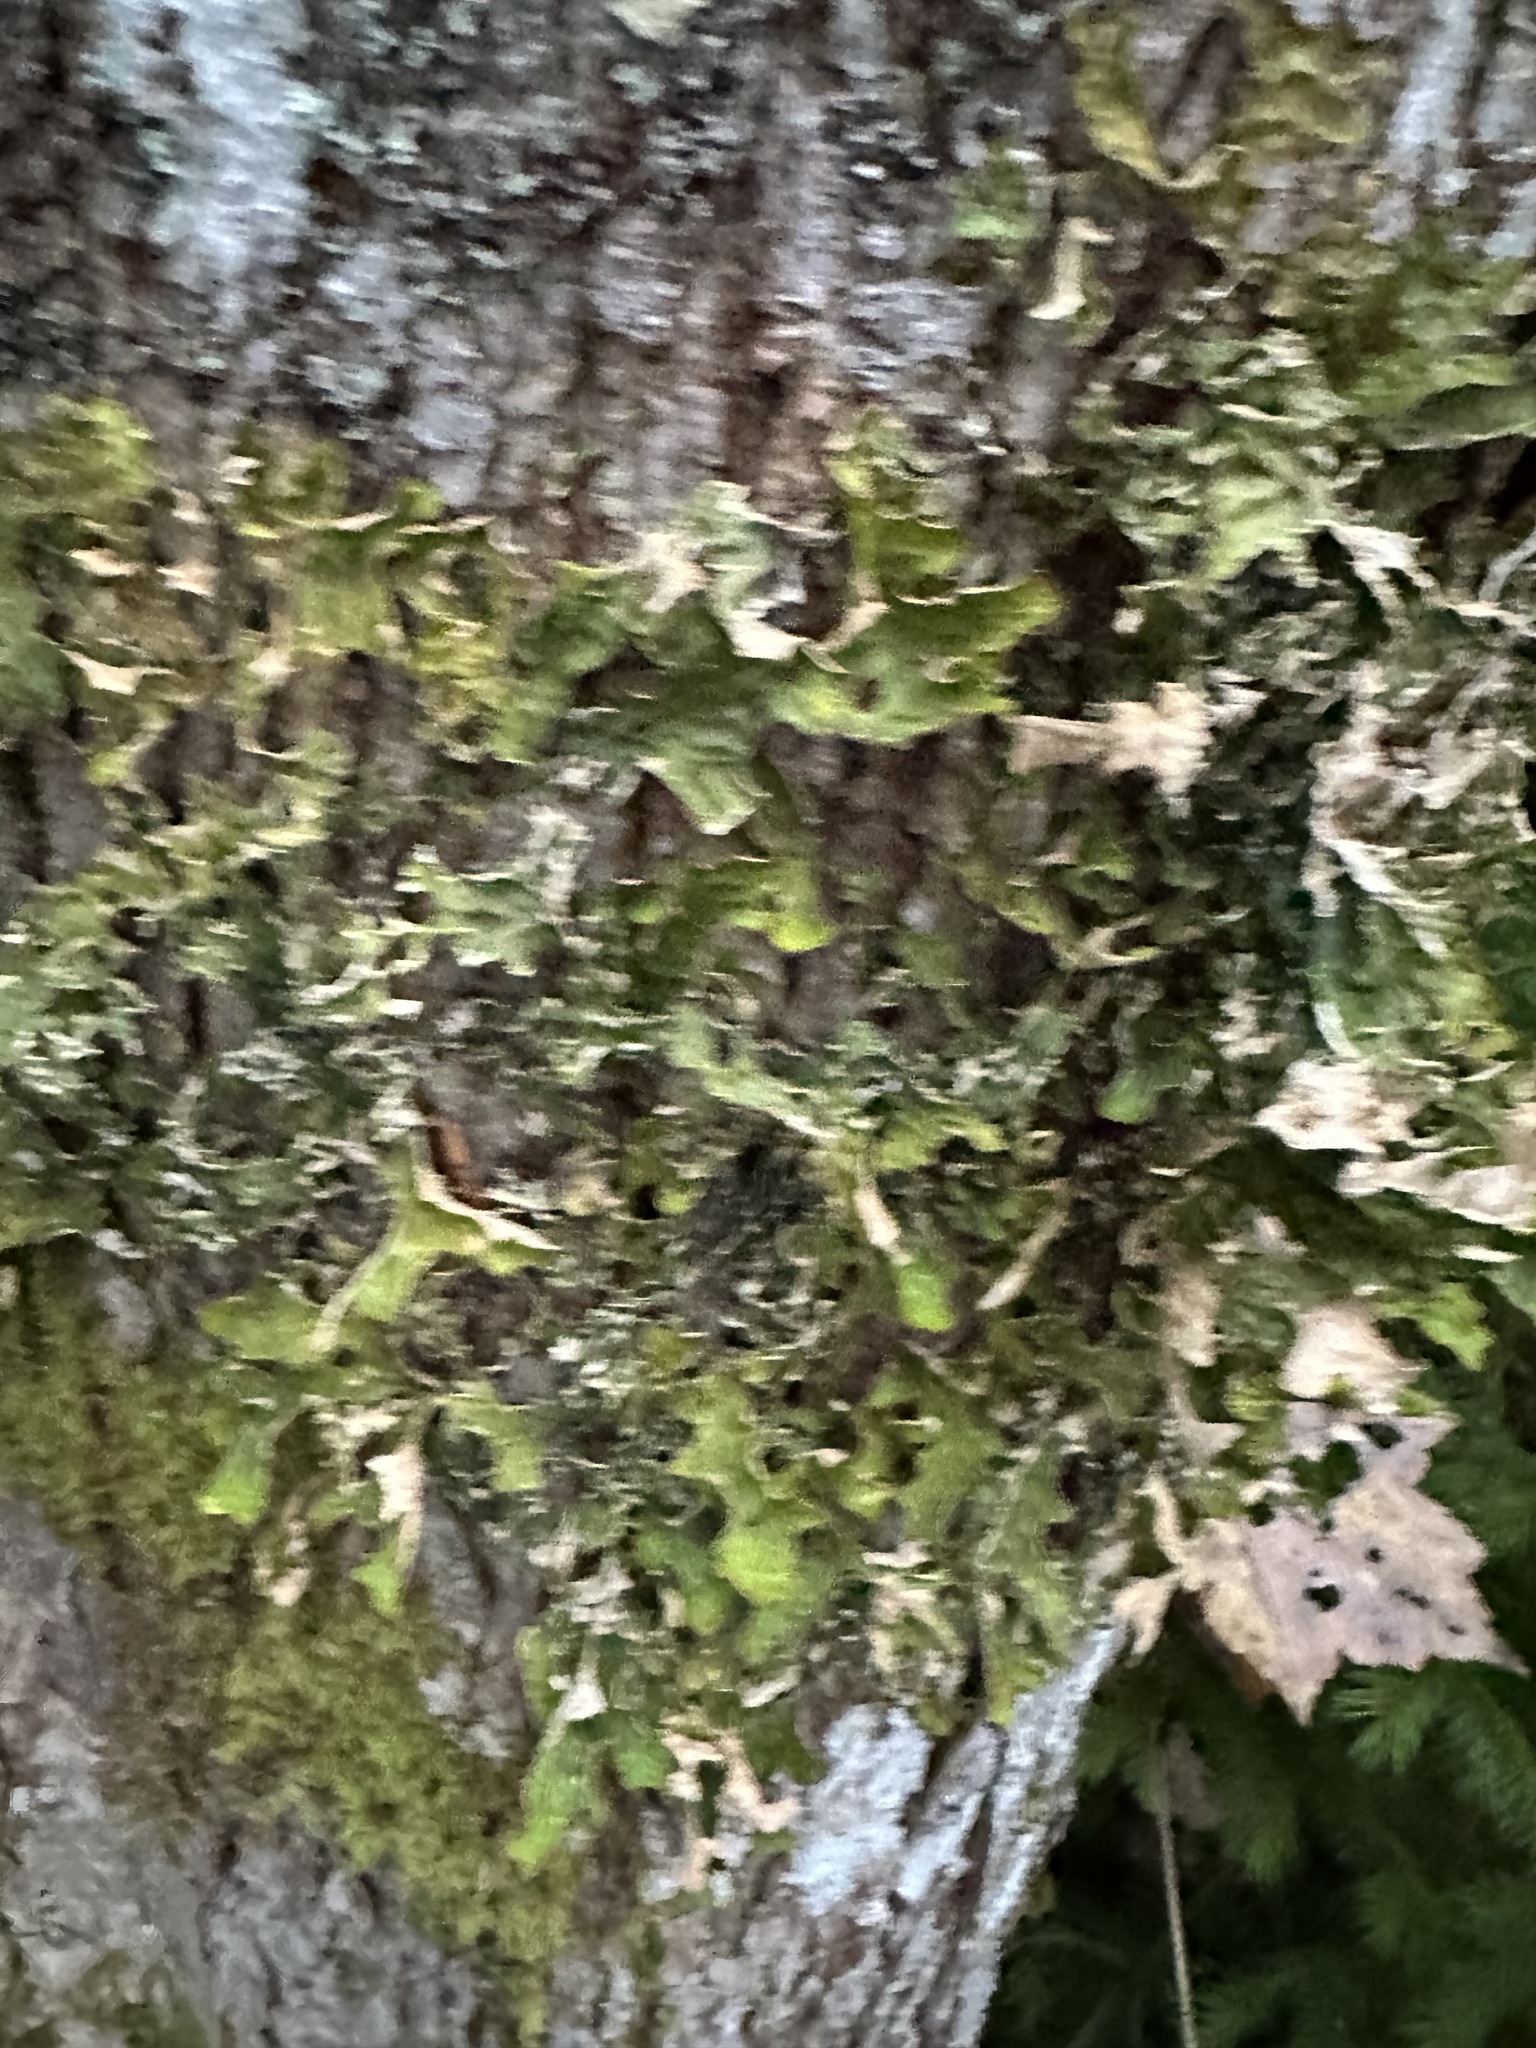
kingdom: Fungi
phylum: Ascomycota
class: Lecanoromycetes
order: Peltigerales
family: Lobariaceae
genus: Lobaria
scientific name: Lobaria pulmonaria
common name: Lungwort
